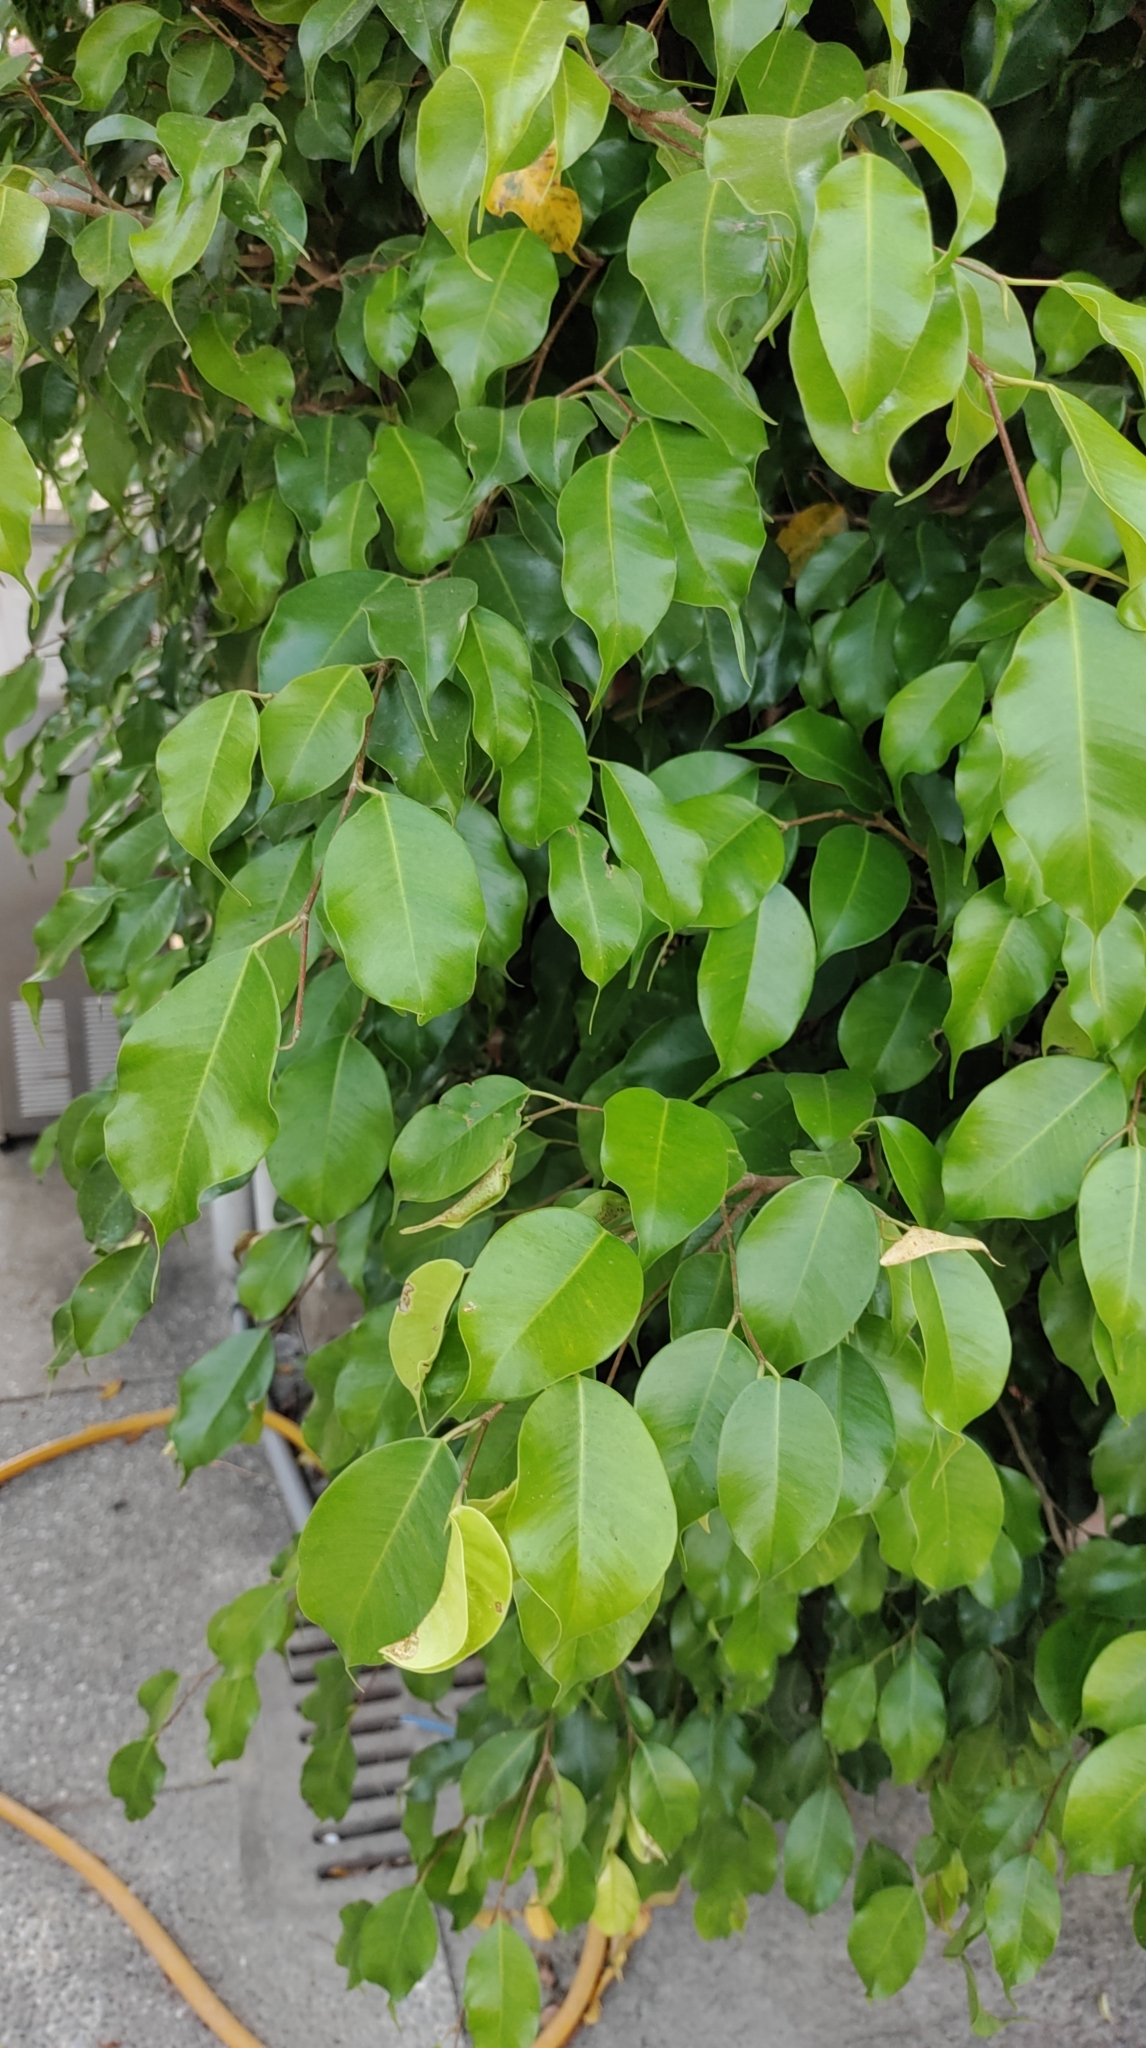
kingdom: Plantae
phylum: Tracheophyta
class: Magnoliopsida
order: Rosales
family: Moraceae
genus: Ficus
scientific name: Ficus benjamina
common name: Weeping fig
